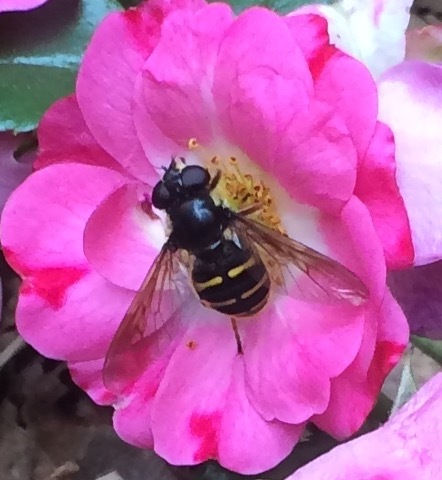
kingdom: Animalia
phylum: Arthropoda
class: Insecta
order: Diptera
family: Syrphidae
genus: Sericomyia
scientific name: Sericomyia chalcopyga
